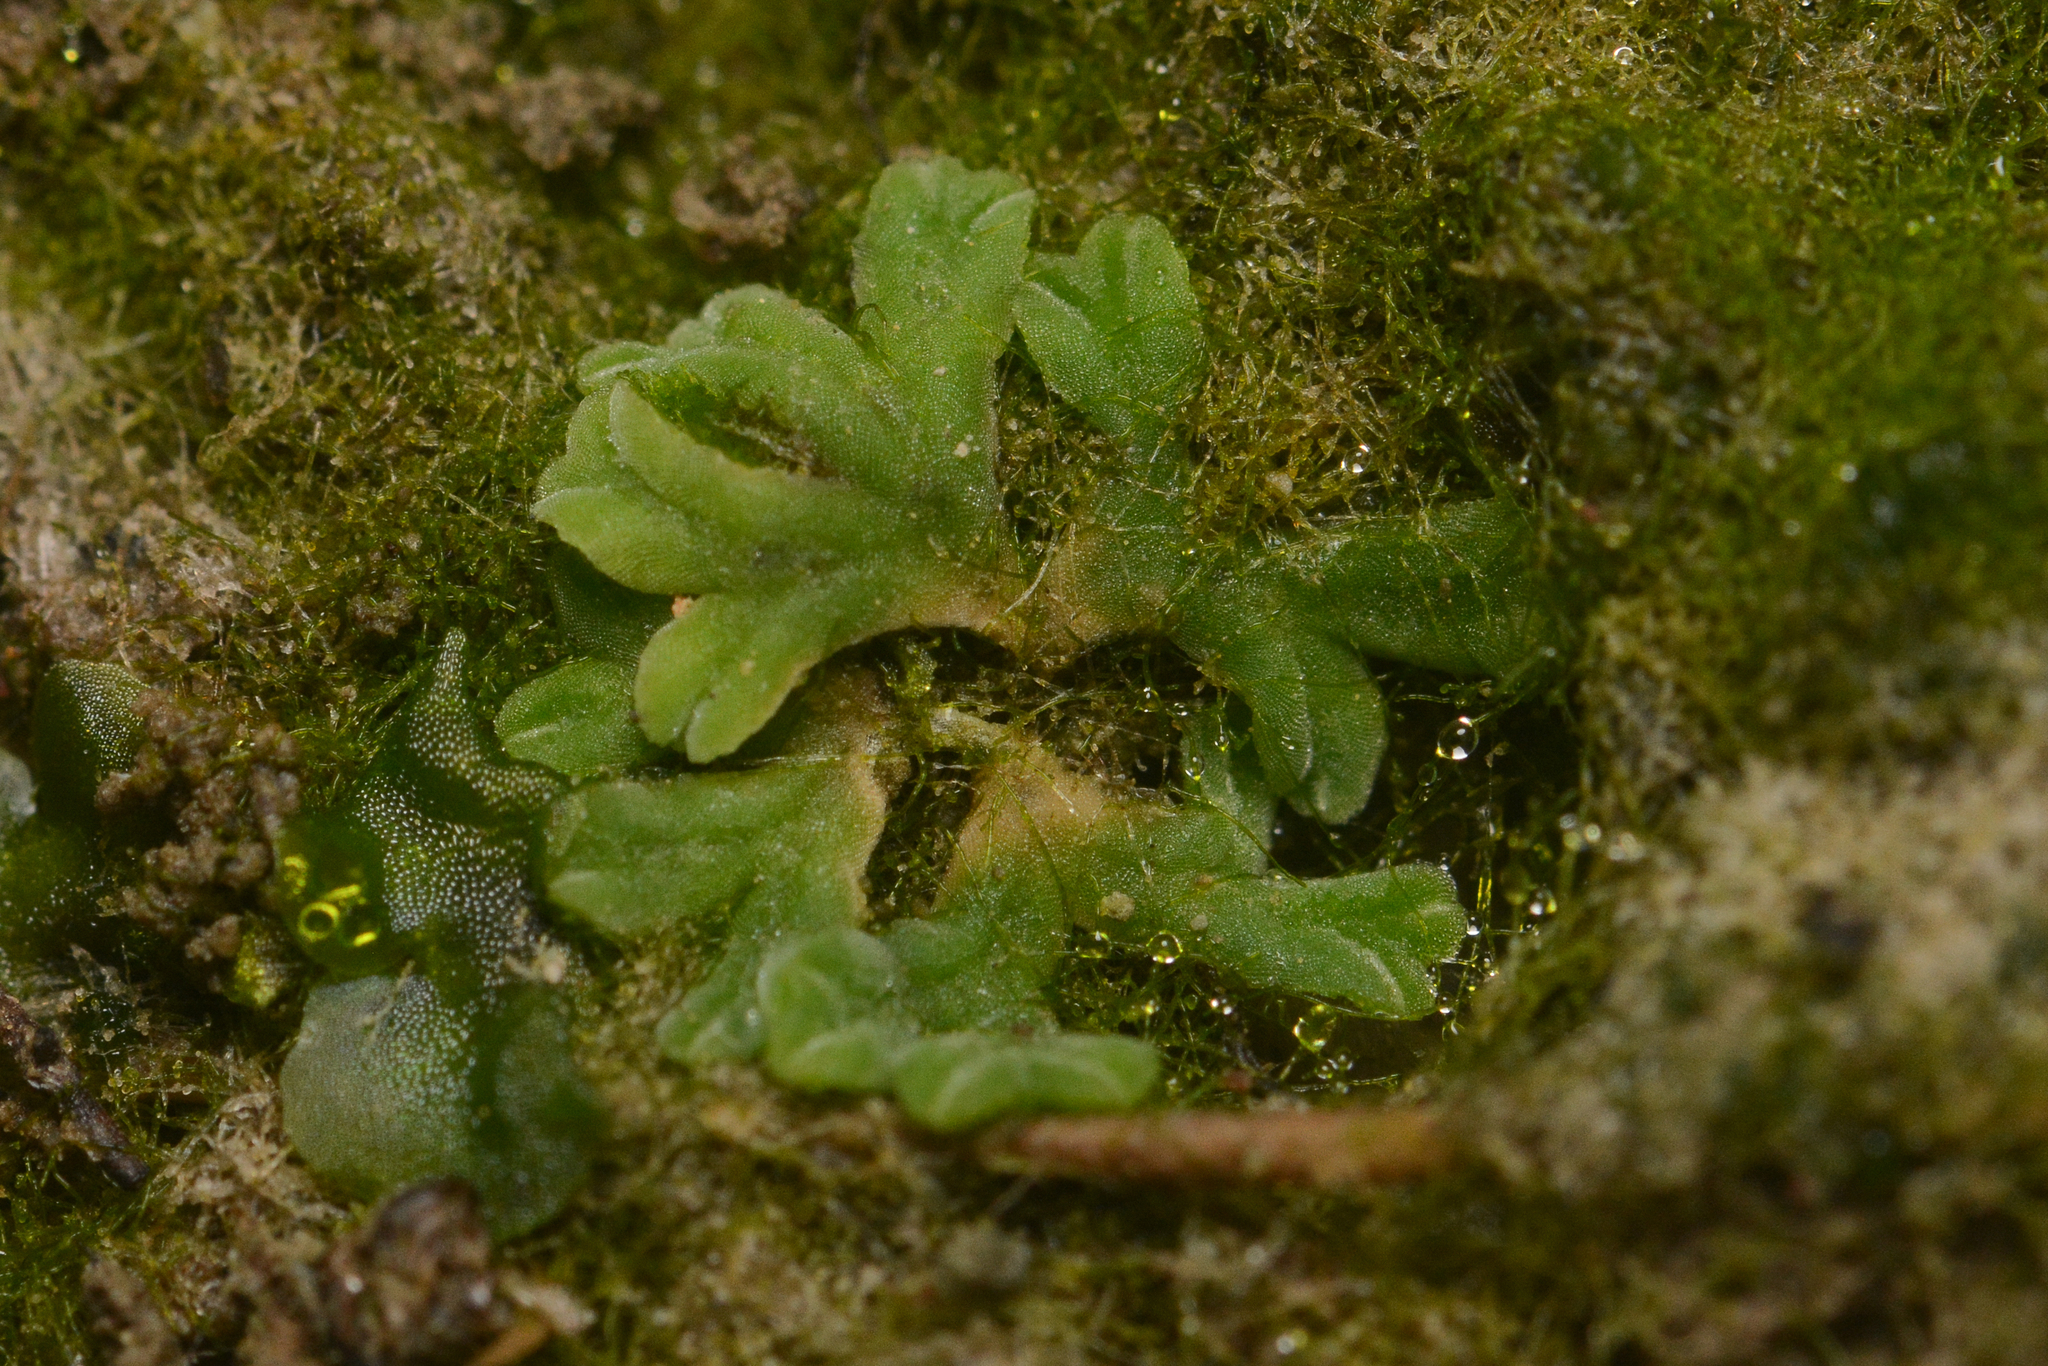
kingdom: Plantae
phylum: Marchantiophyta
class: Marchantiopsida
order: Marchantiales
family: Ricciaceae
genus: Riccia
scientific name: Riccia sorocarpa
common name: Common crystalwort
